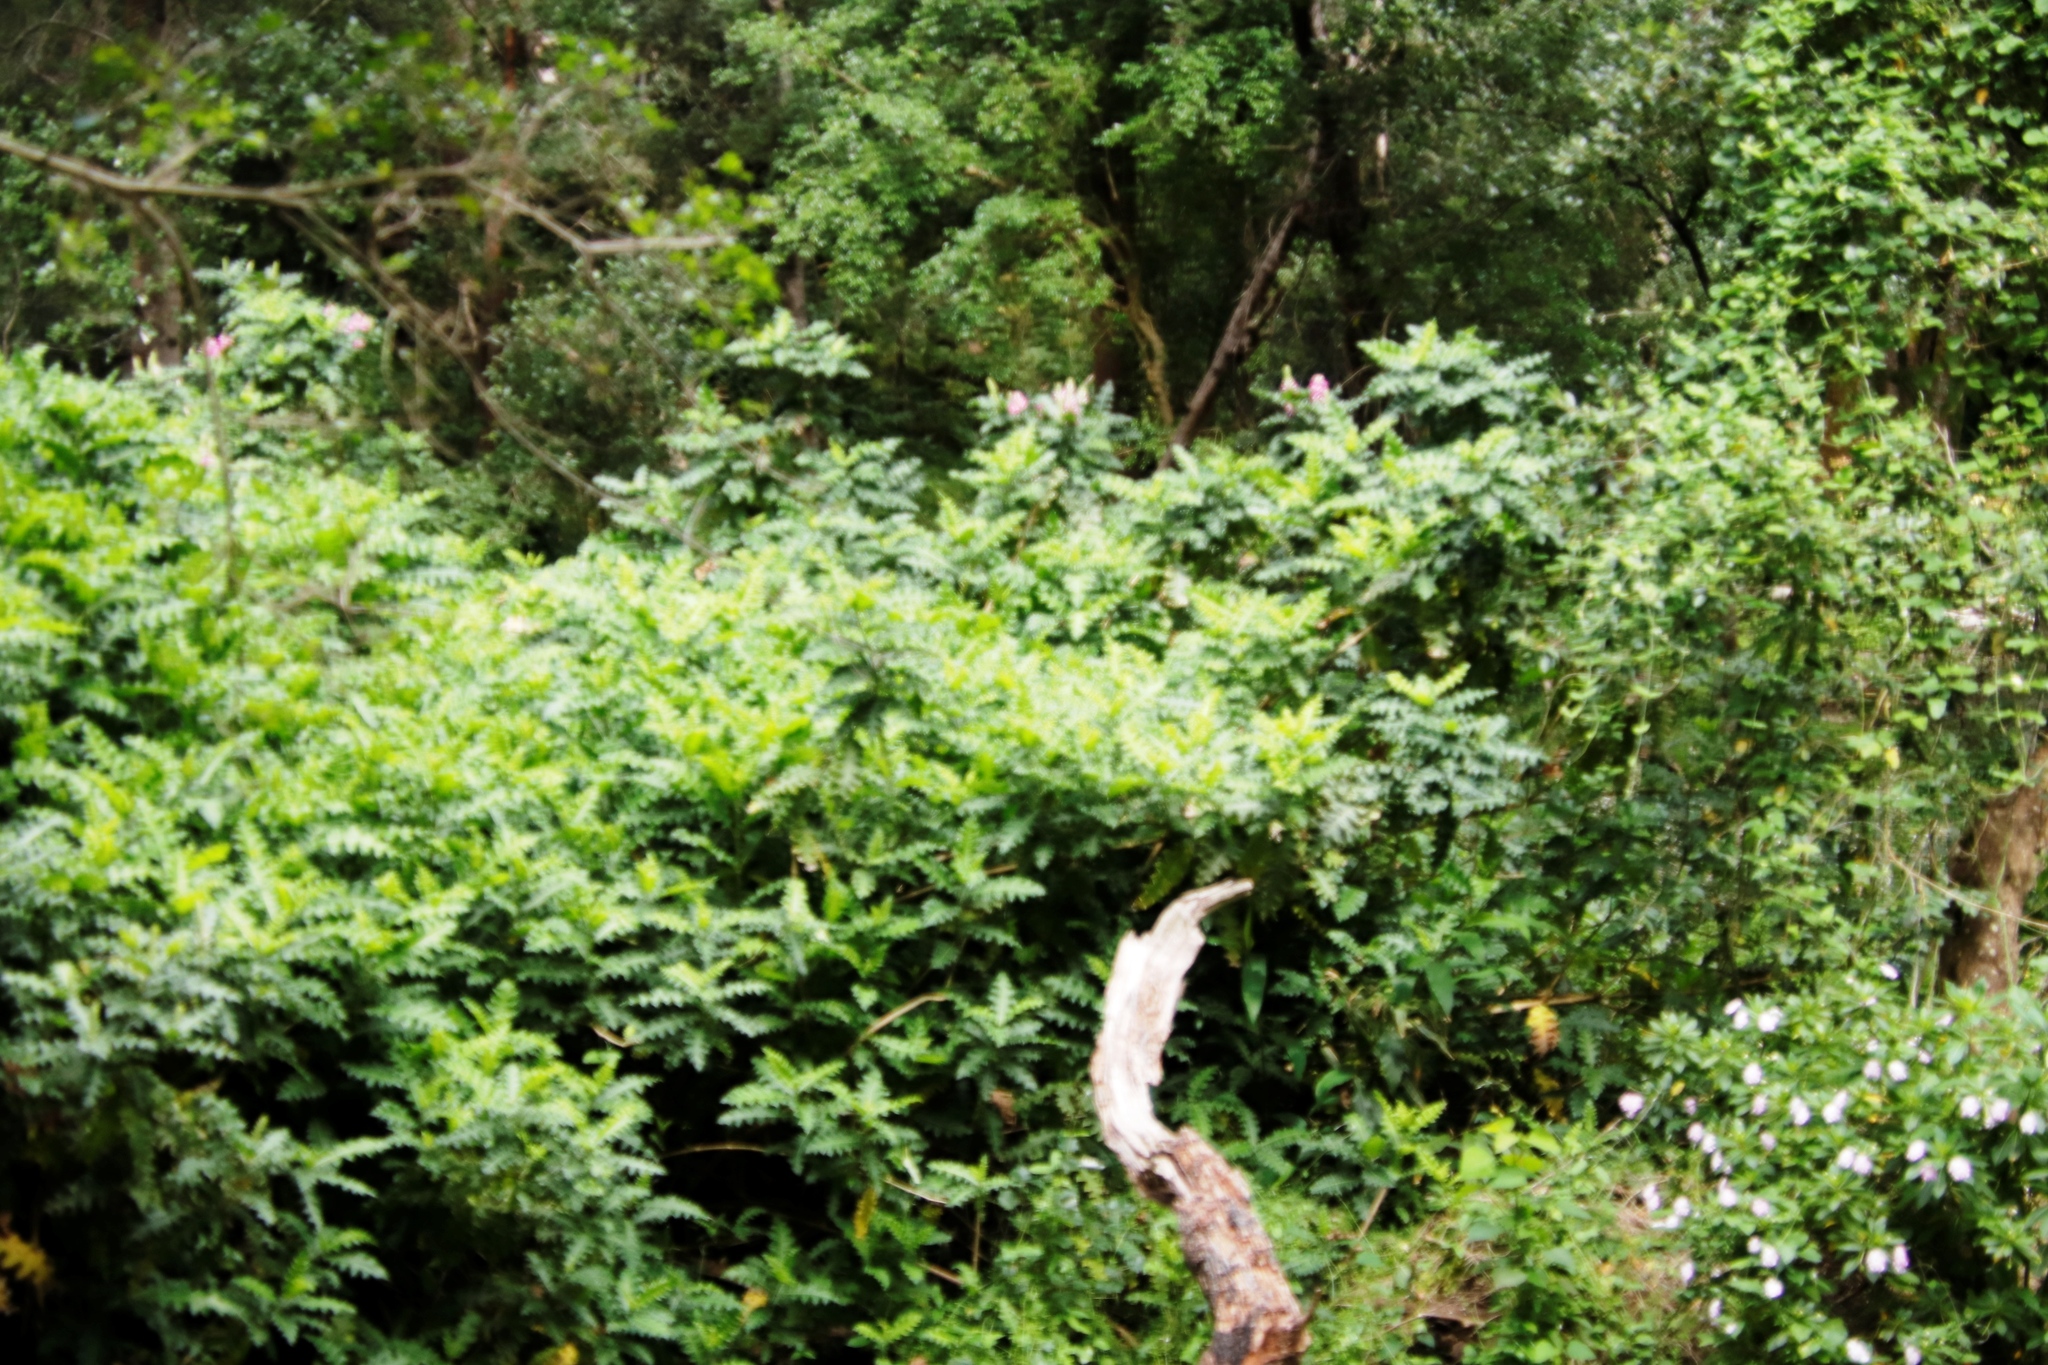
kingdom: Plantae
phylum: Tracheophyta
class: Magnoliopsida
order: Lamiales
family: Acanthaceae
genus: Acanthus
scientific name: Acanthus polystachyus
